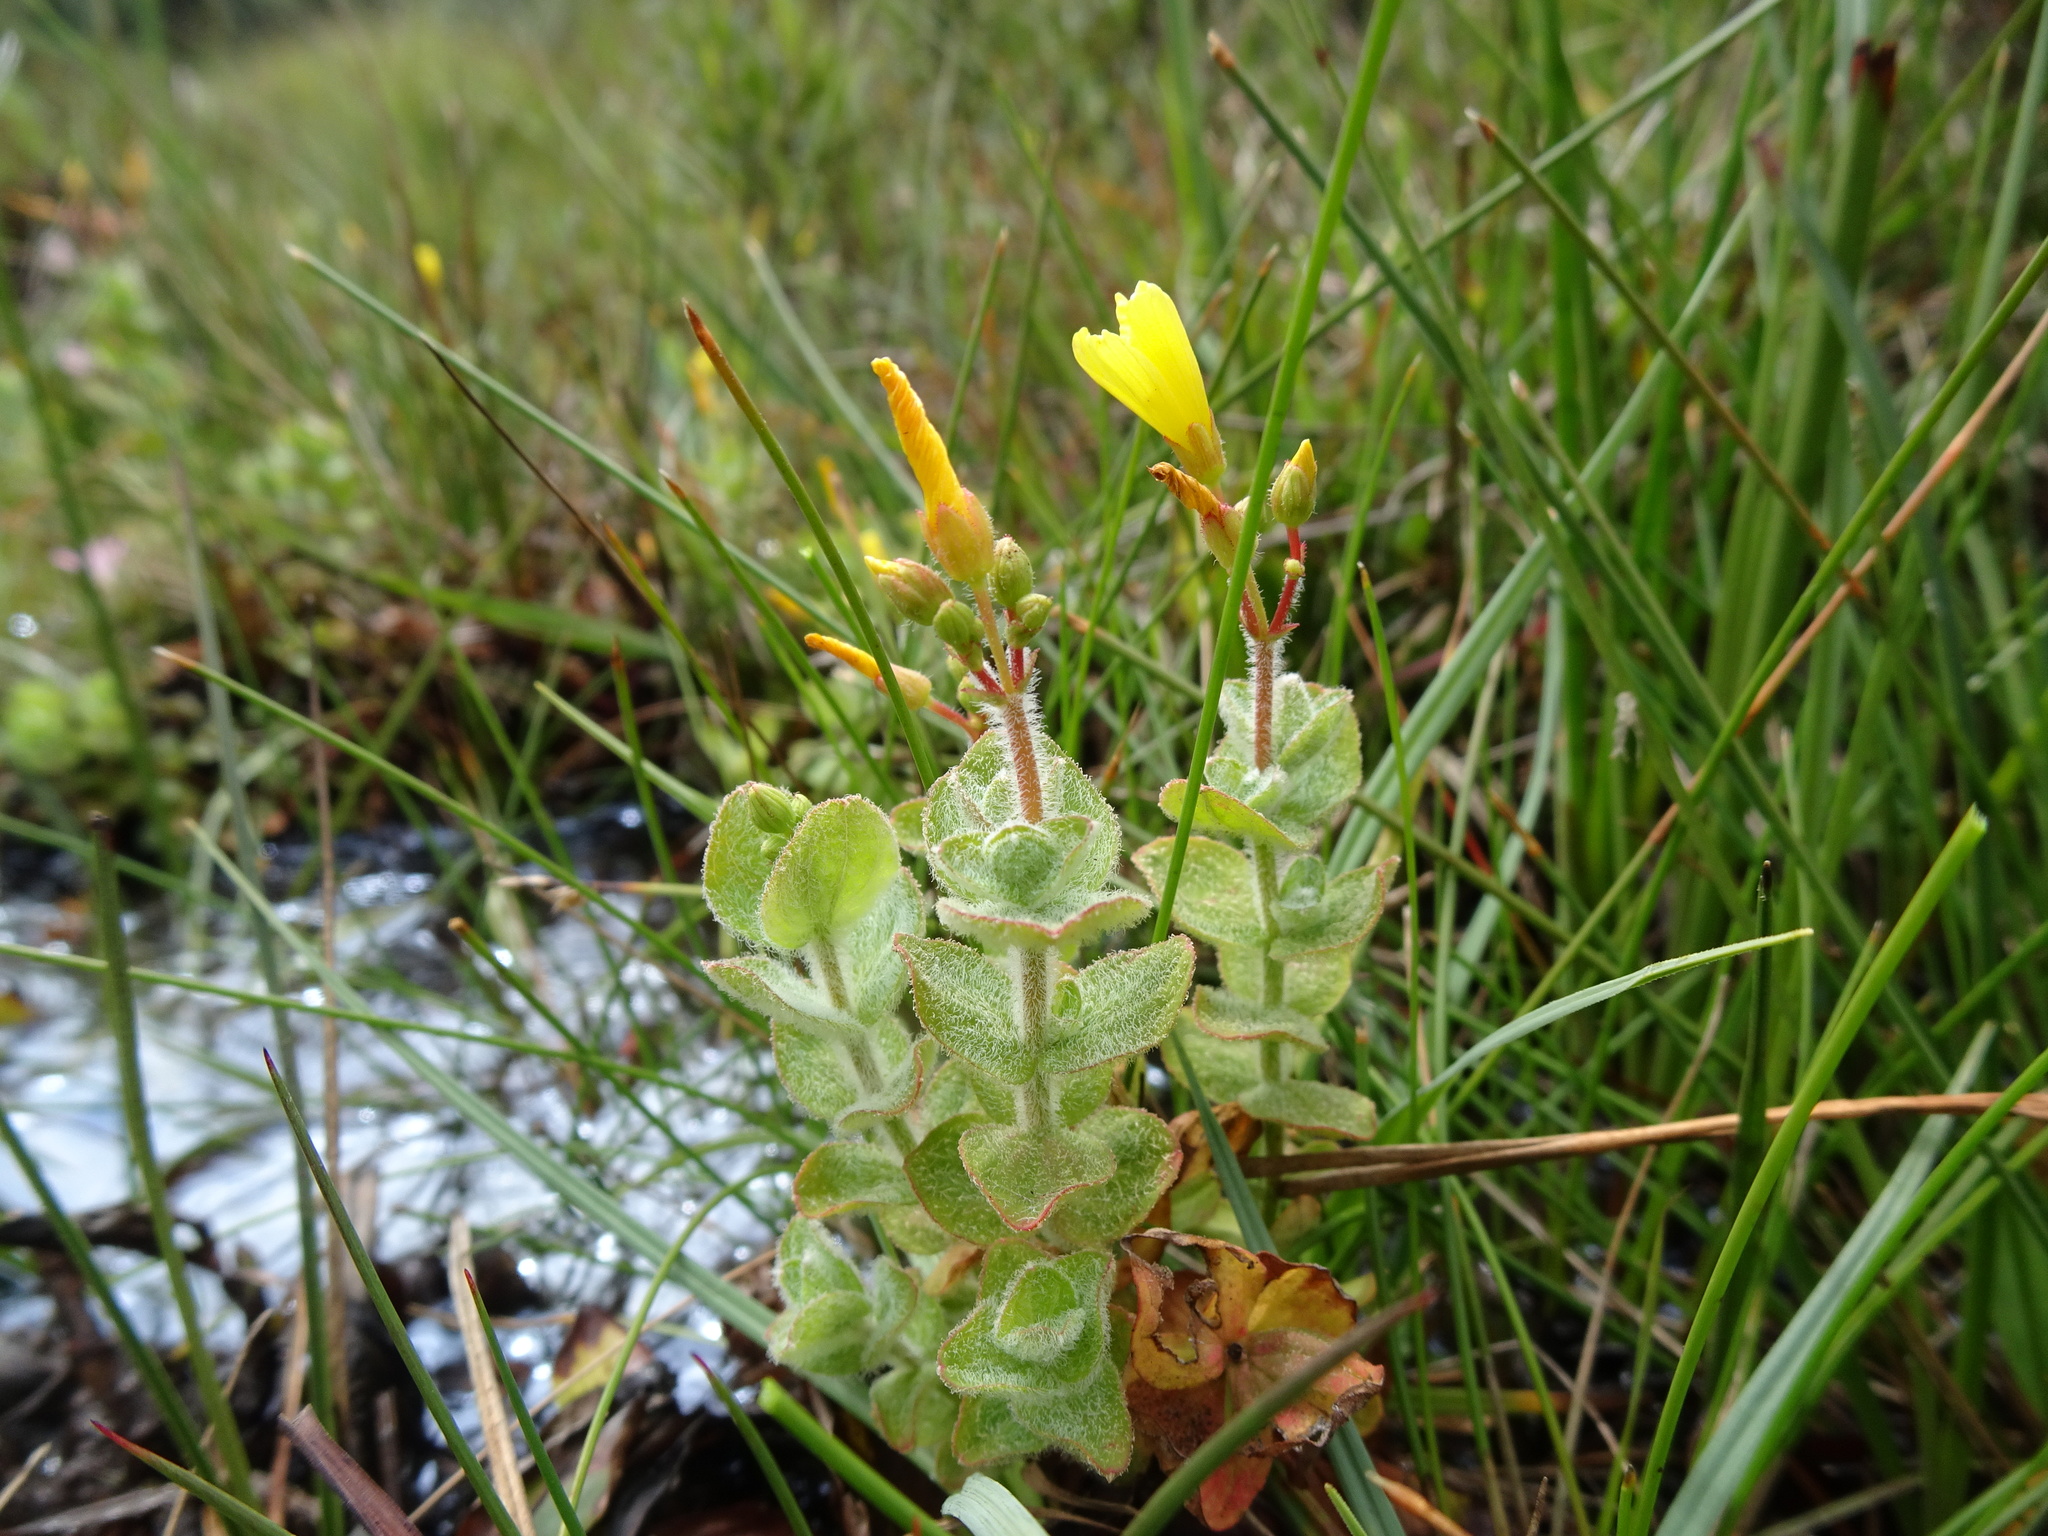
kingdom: Plantae
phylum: Tracheophyta
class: Magnoliopsida
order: Malpighiales
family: Hypericaceae
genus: Hypericum
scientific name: Hypericum elodes
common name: Marsh st. john's-wort
